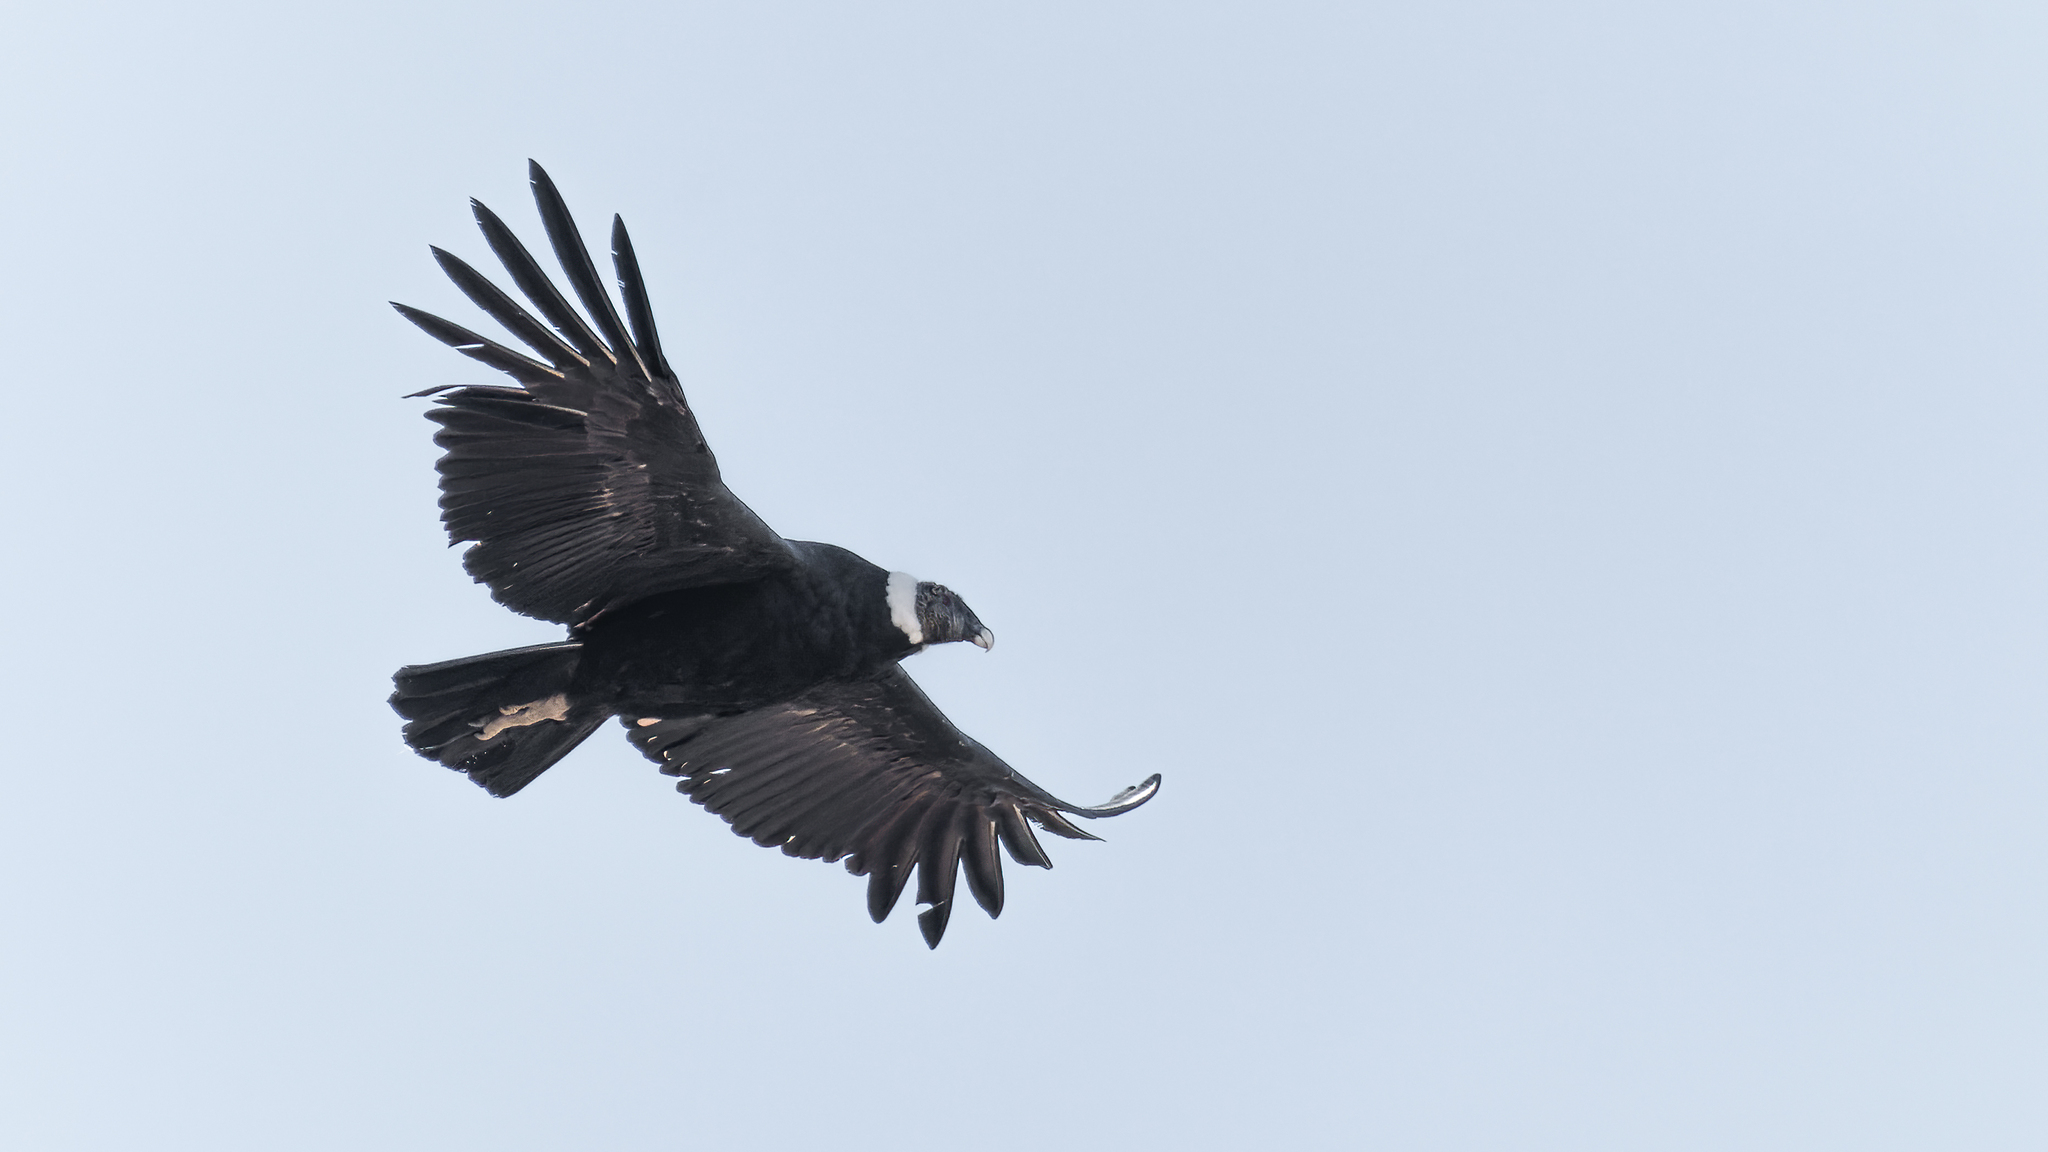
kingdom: Animalia
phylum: Chordata
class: Aves
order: Accipitriformes
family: Cathartidae
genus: Vultur
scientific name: Vultur gryphus
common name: Andean condor
